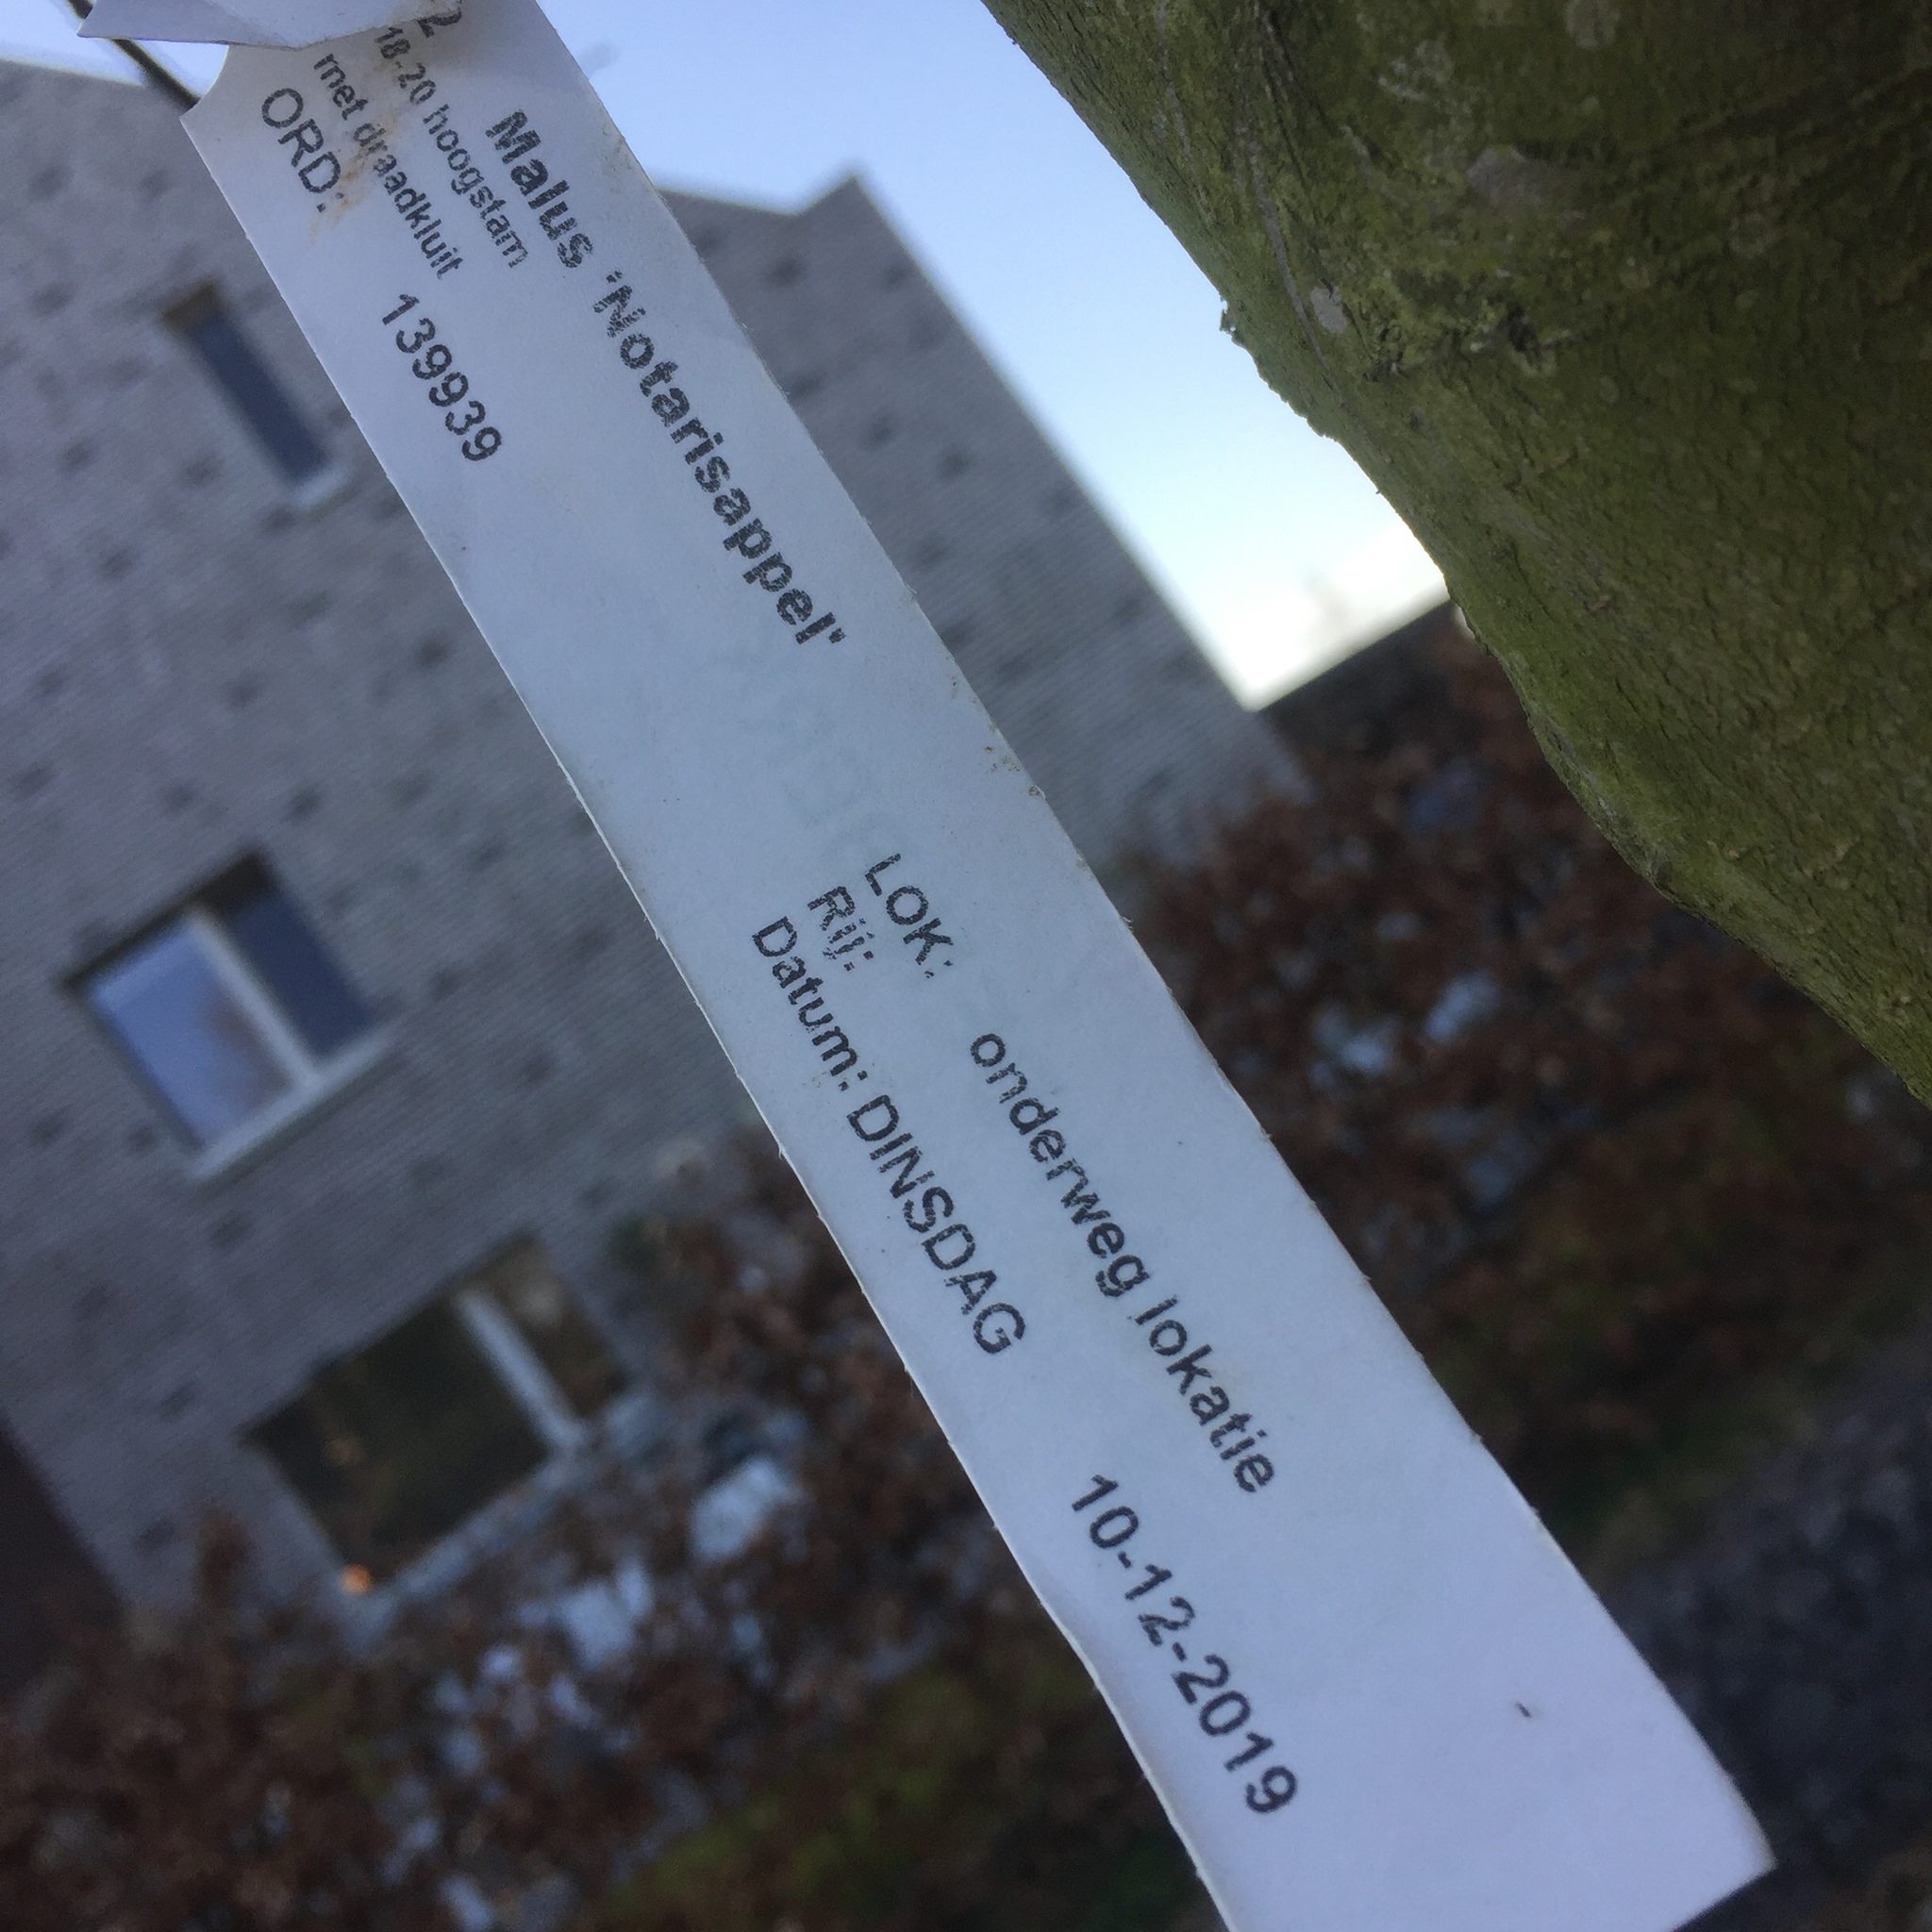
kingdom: Plantae
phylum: Tracheophyta
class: Magnoliopsida
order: Rosales
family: Rosaceae
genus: Malus
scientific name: Malus domestica
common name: Apple
